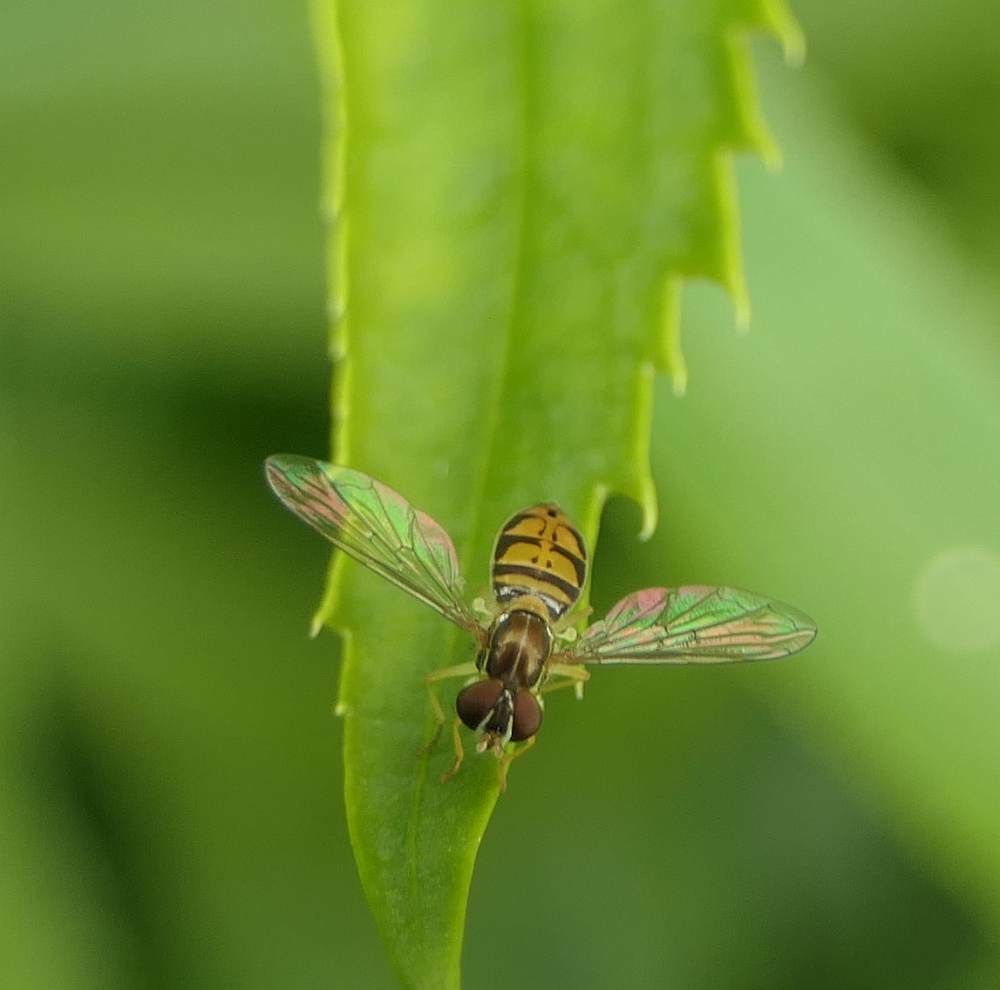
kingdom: Animalia
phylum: Arthropoda
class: Insecta
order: Diptera
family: Syrphidae
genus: Toxomerus
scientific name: Toxomerus marginatus
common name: Syrphid fly
